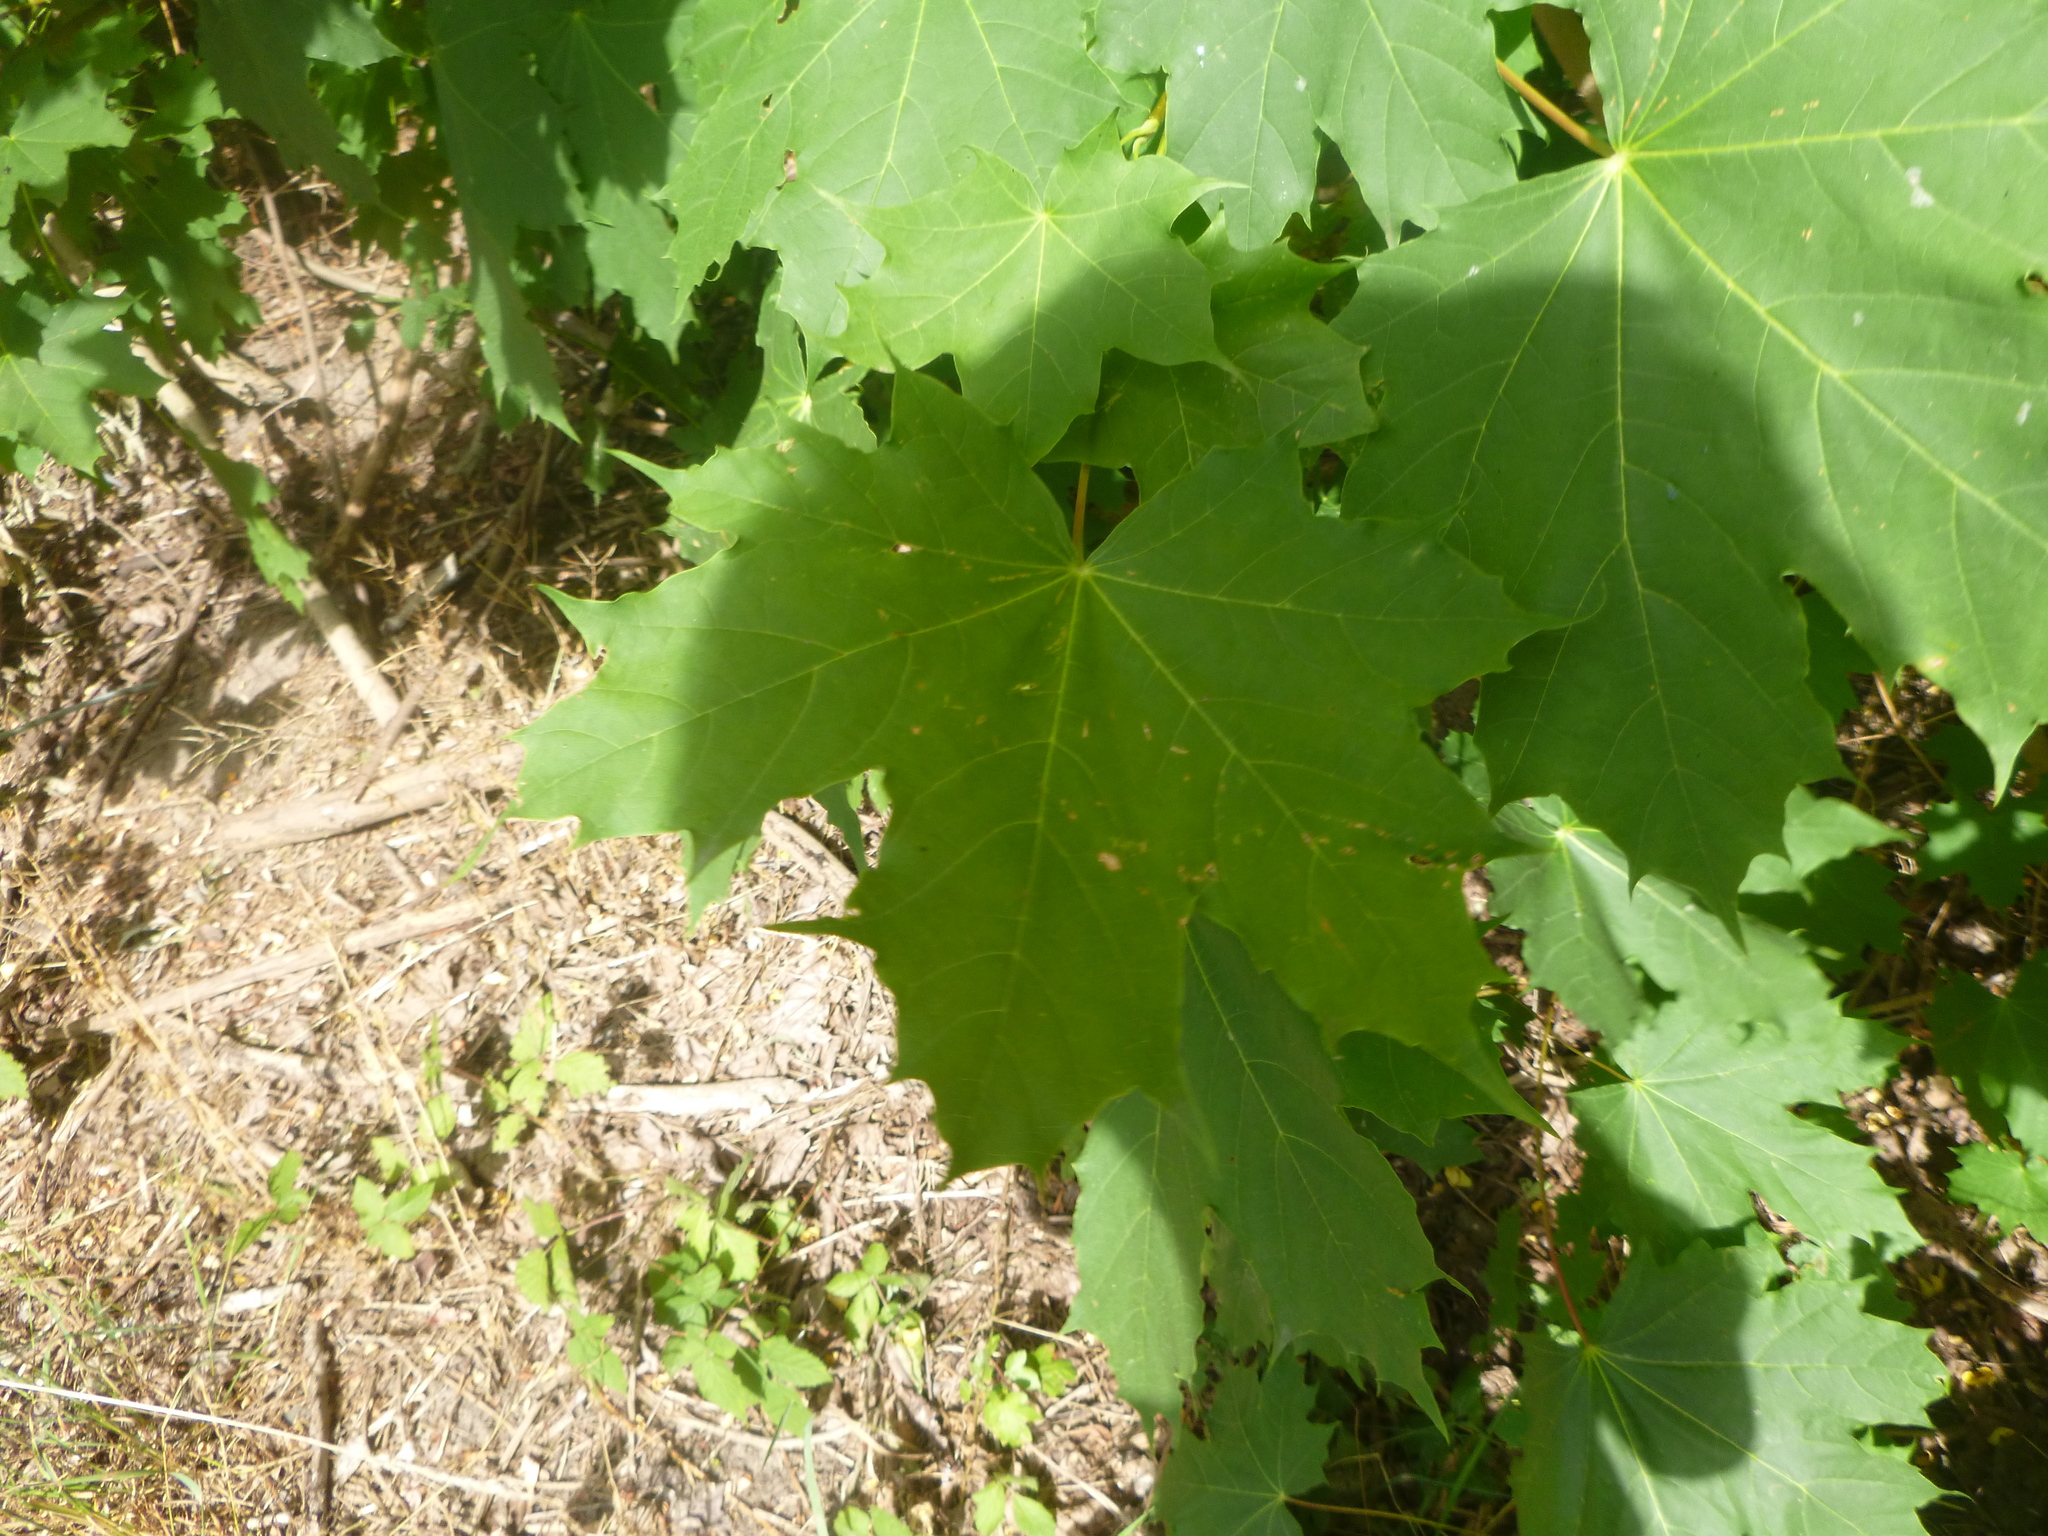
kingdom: Plantae
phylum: Tracheophyta
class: Magnoliopsida
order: Sapindales
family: Sapindaceae
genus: Acer
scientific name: Acer platanoides
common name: Norway maple
